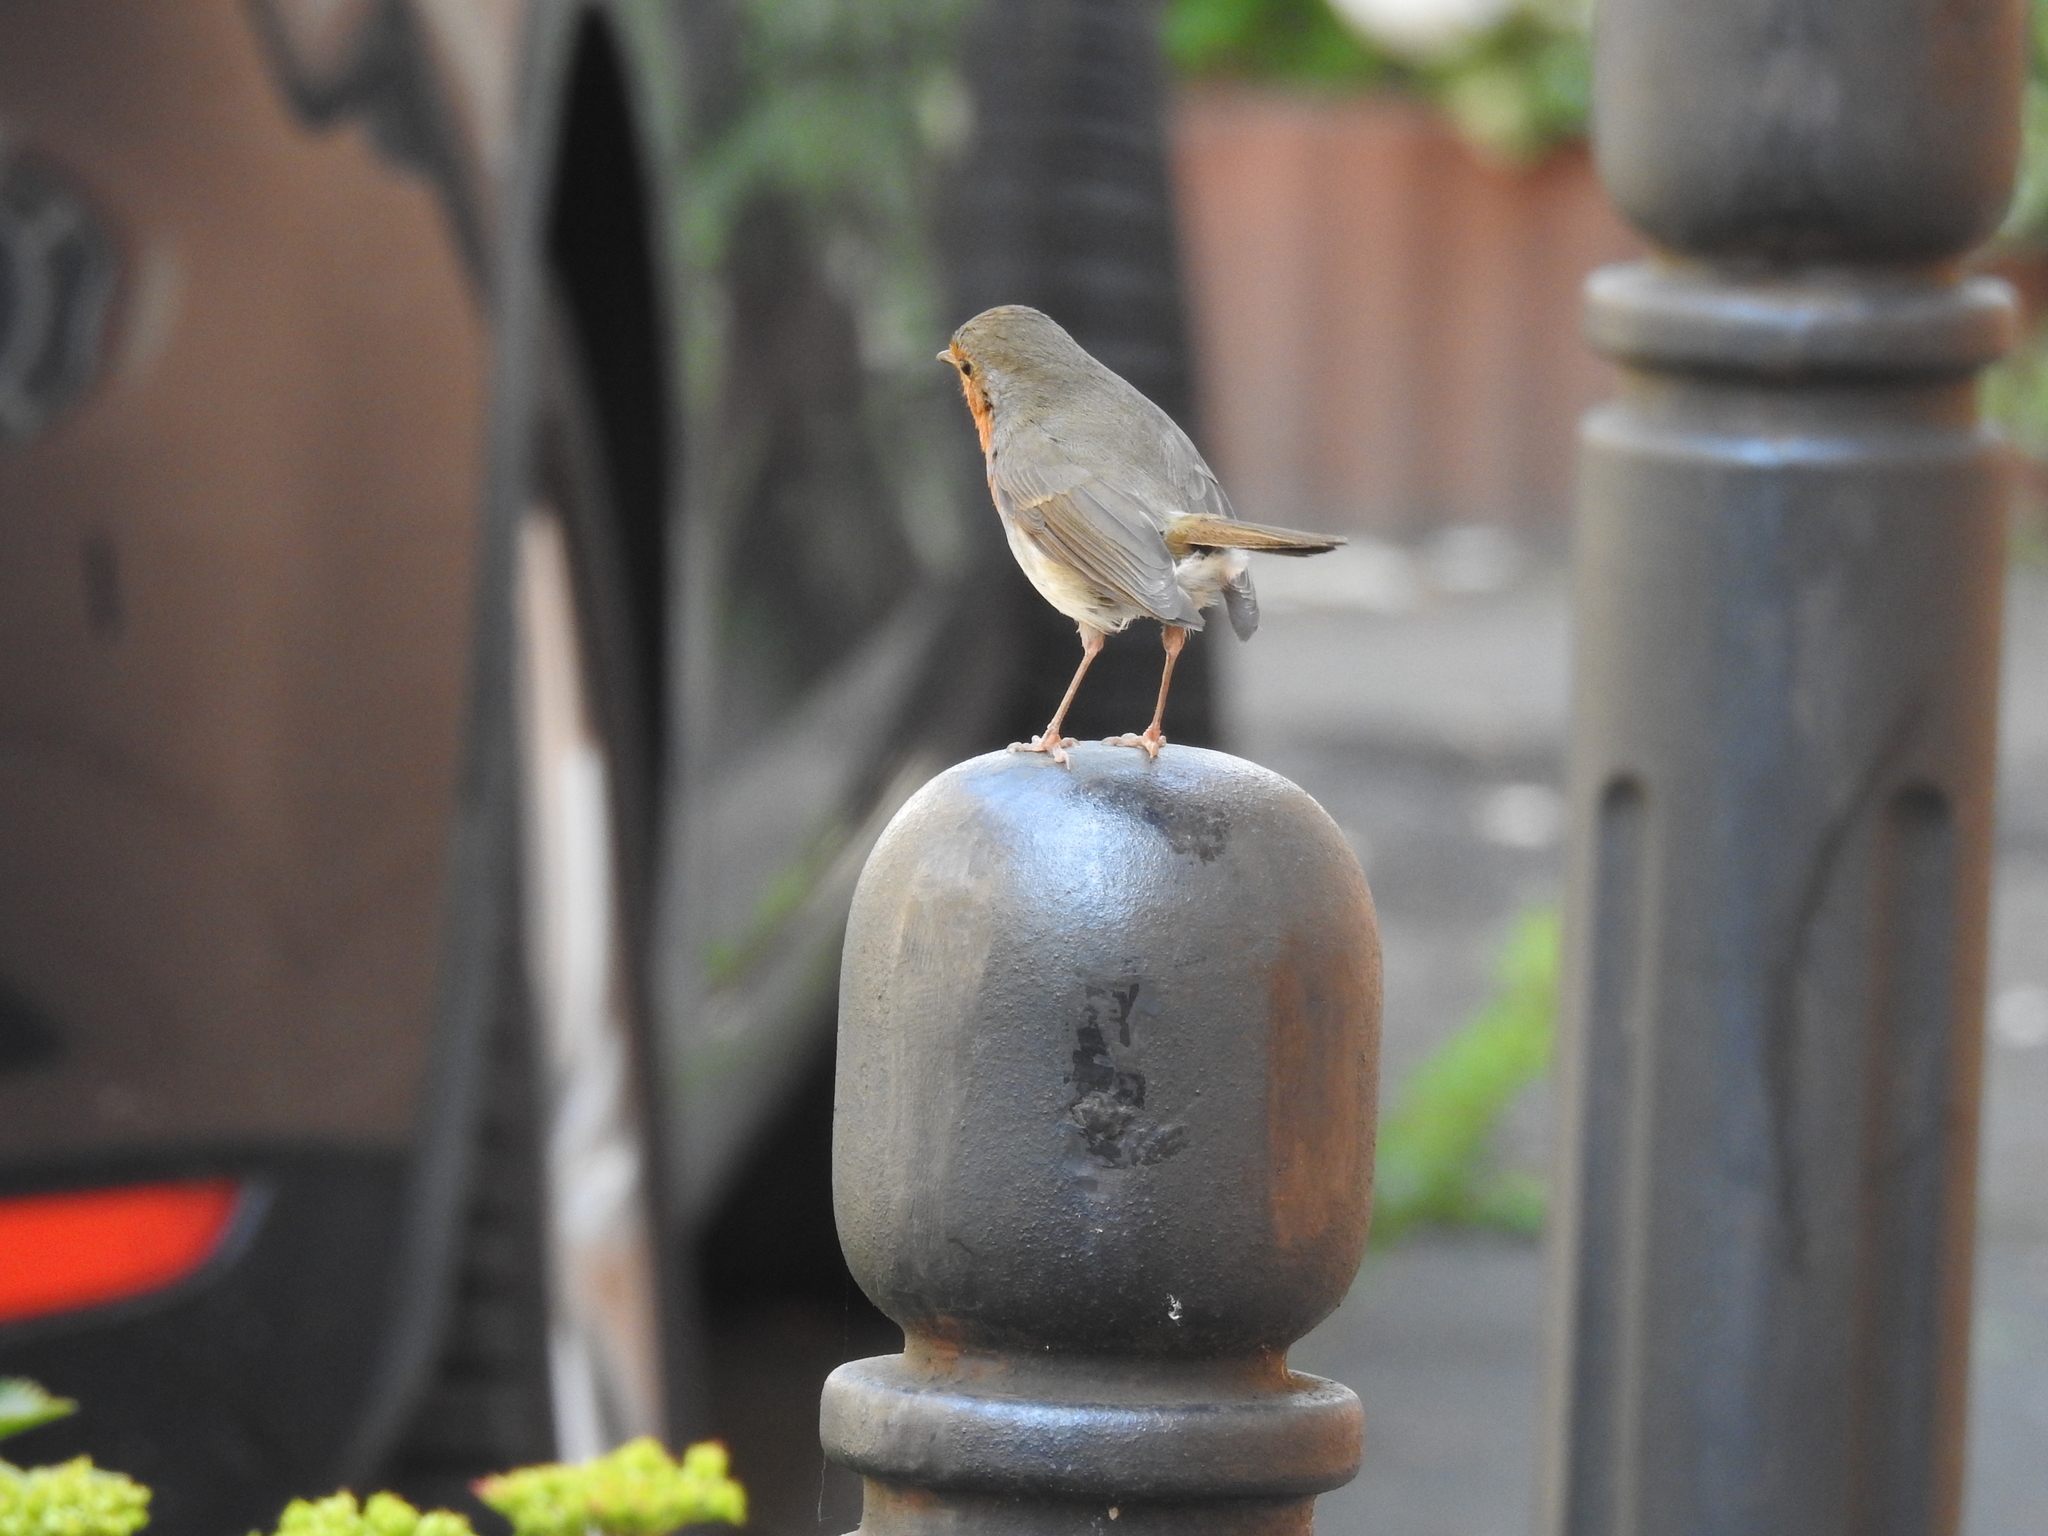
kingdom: Animalia
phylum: Chordata
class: Aves
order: Passeriformes
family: Muscicapidae
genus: Erithacus
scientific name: Erithacus rubecula
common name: European robin
